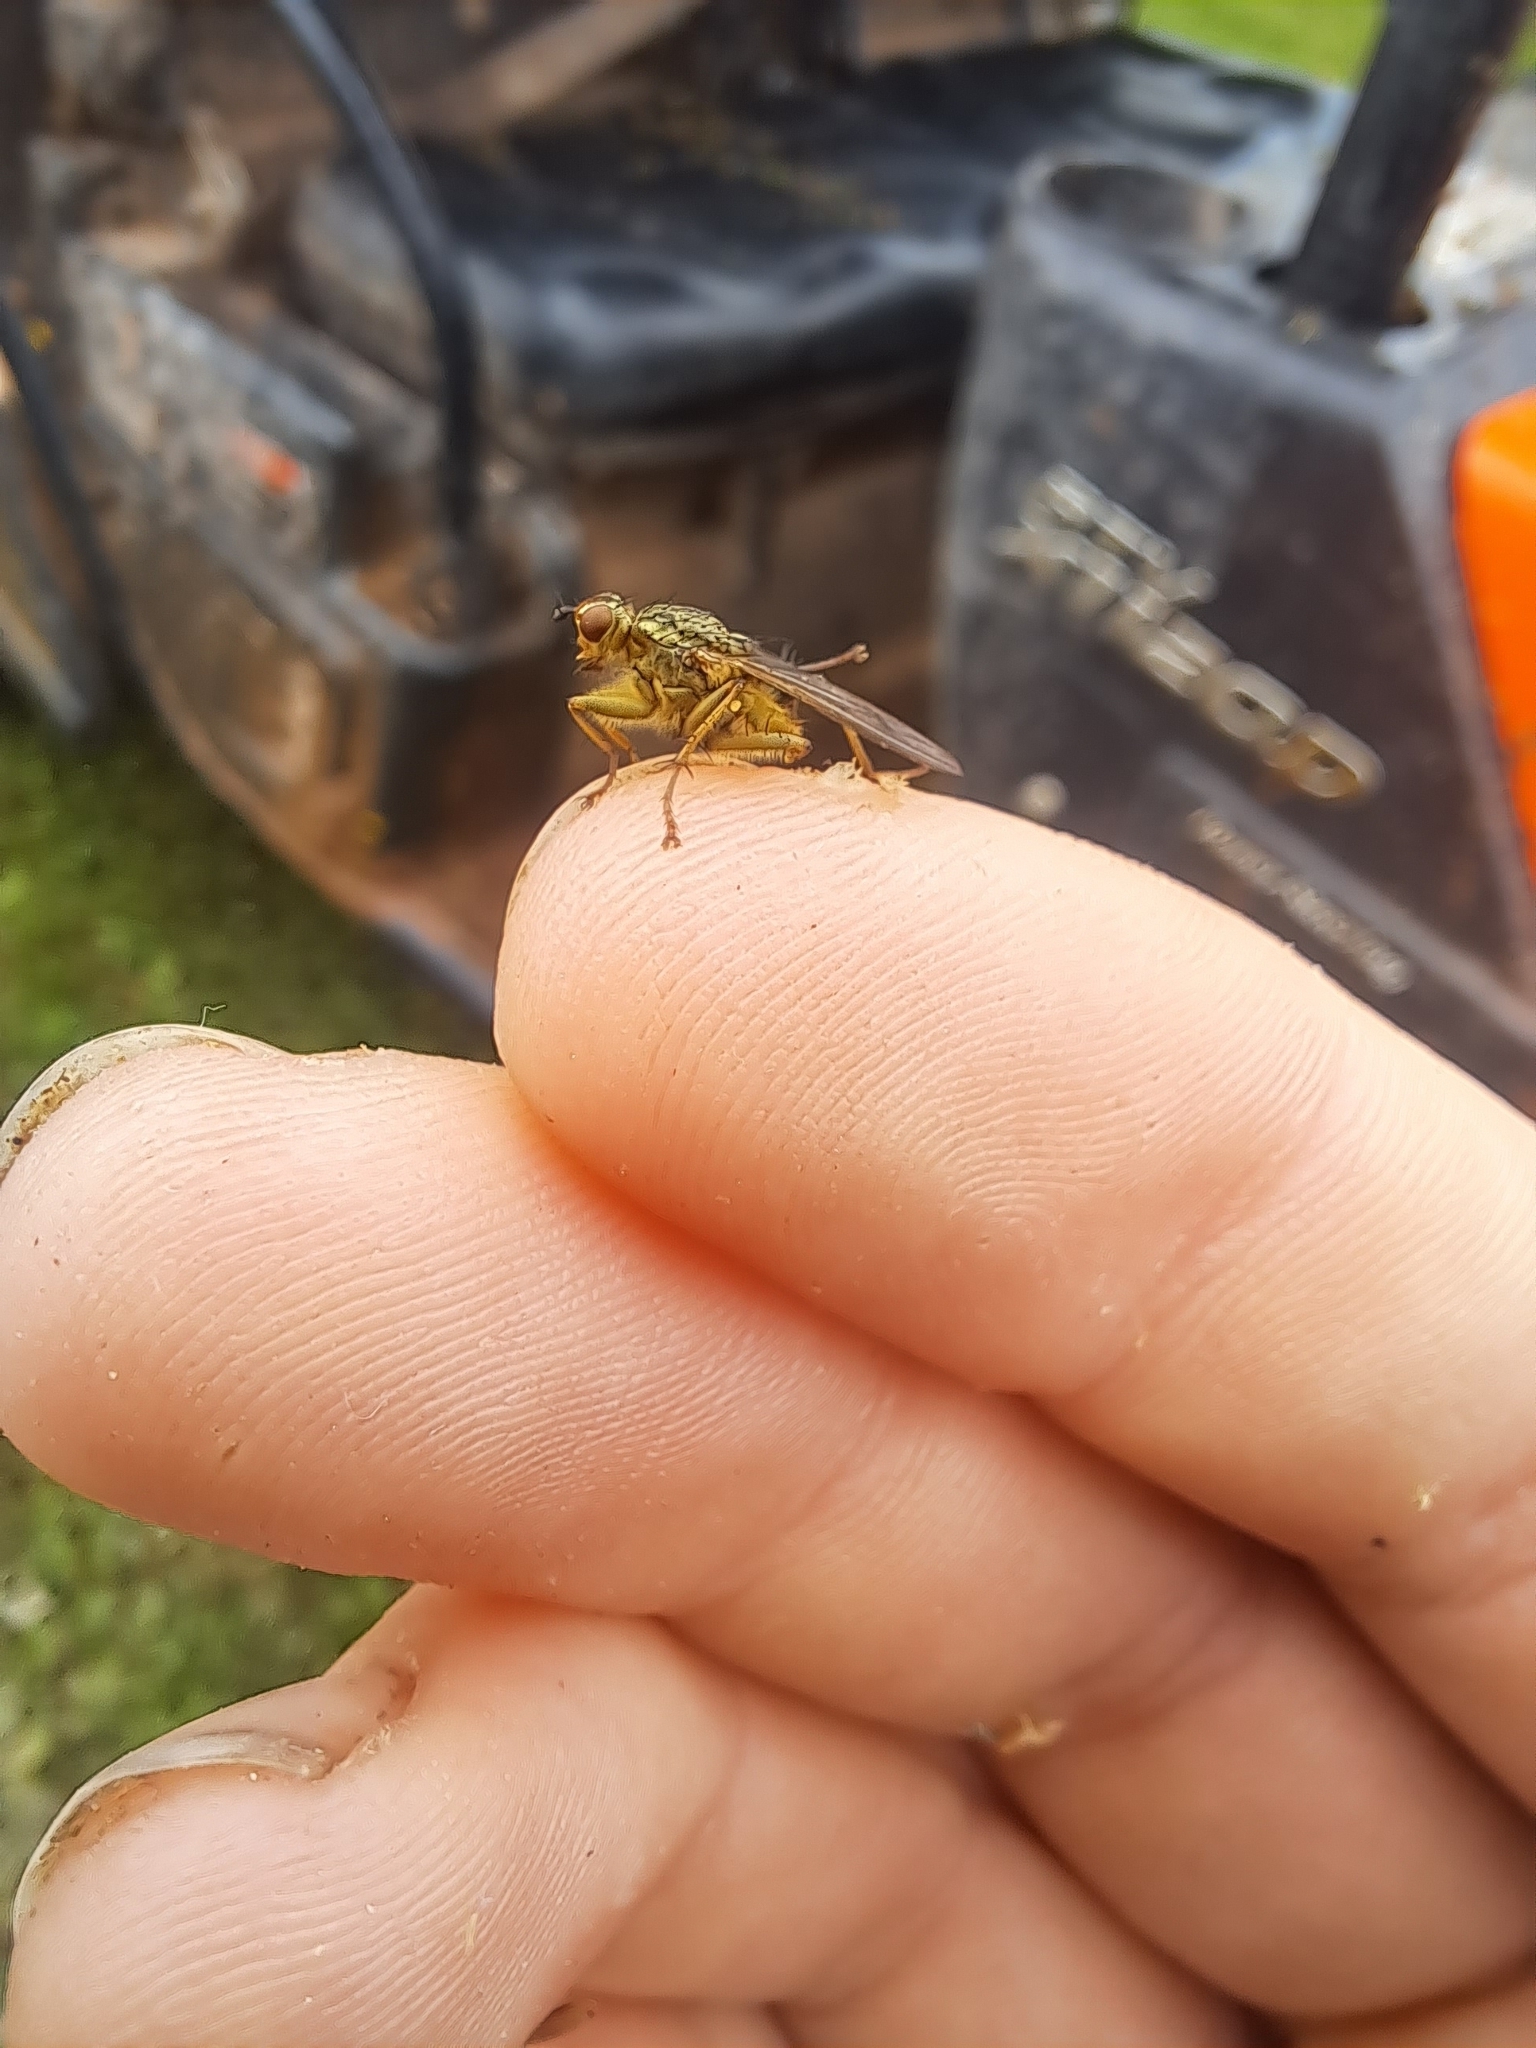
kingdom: Animalia
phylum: Arthropoda
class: Insecta
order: Diptera
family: Scathophagidae
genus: Scathophaga
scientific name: Scathophaga stercoraria
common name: Yellow dung fly
